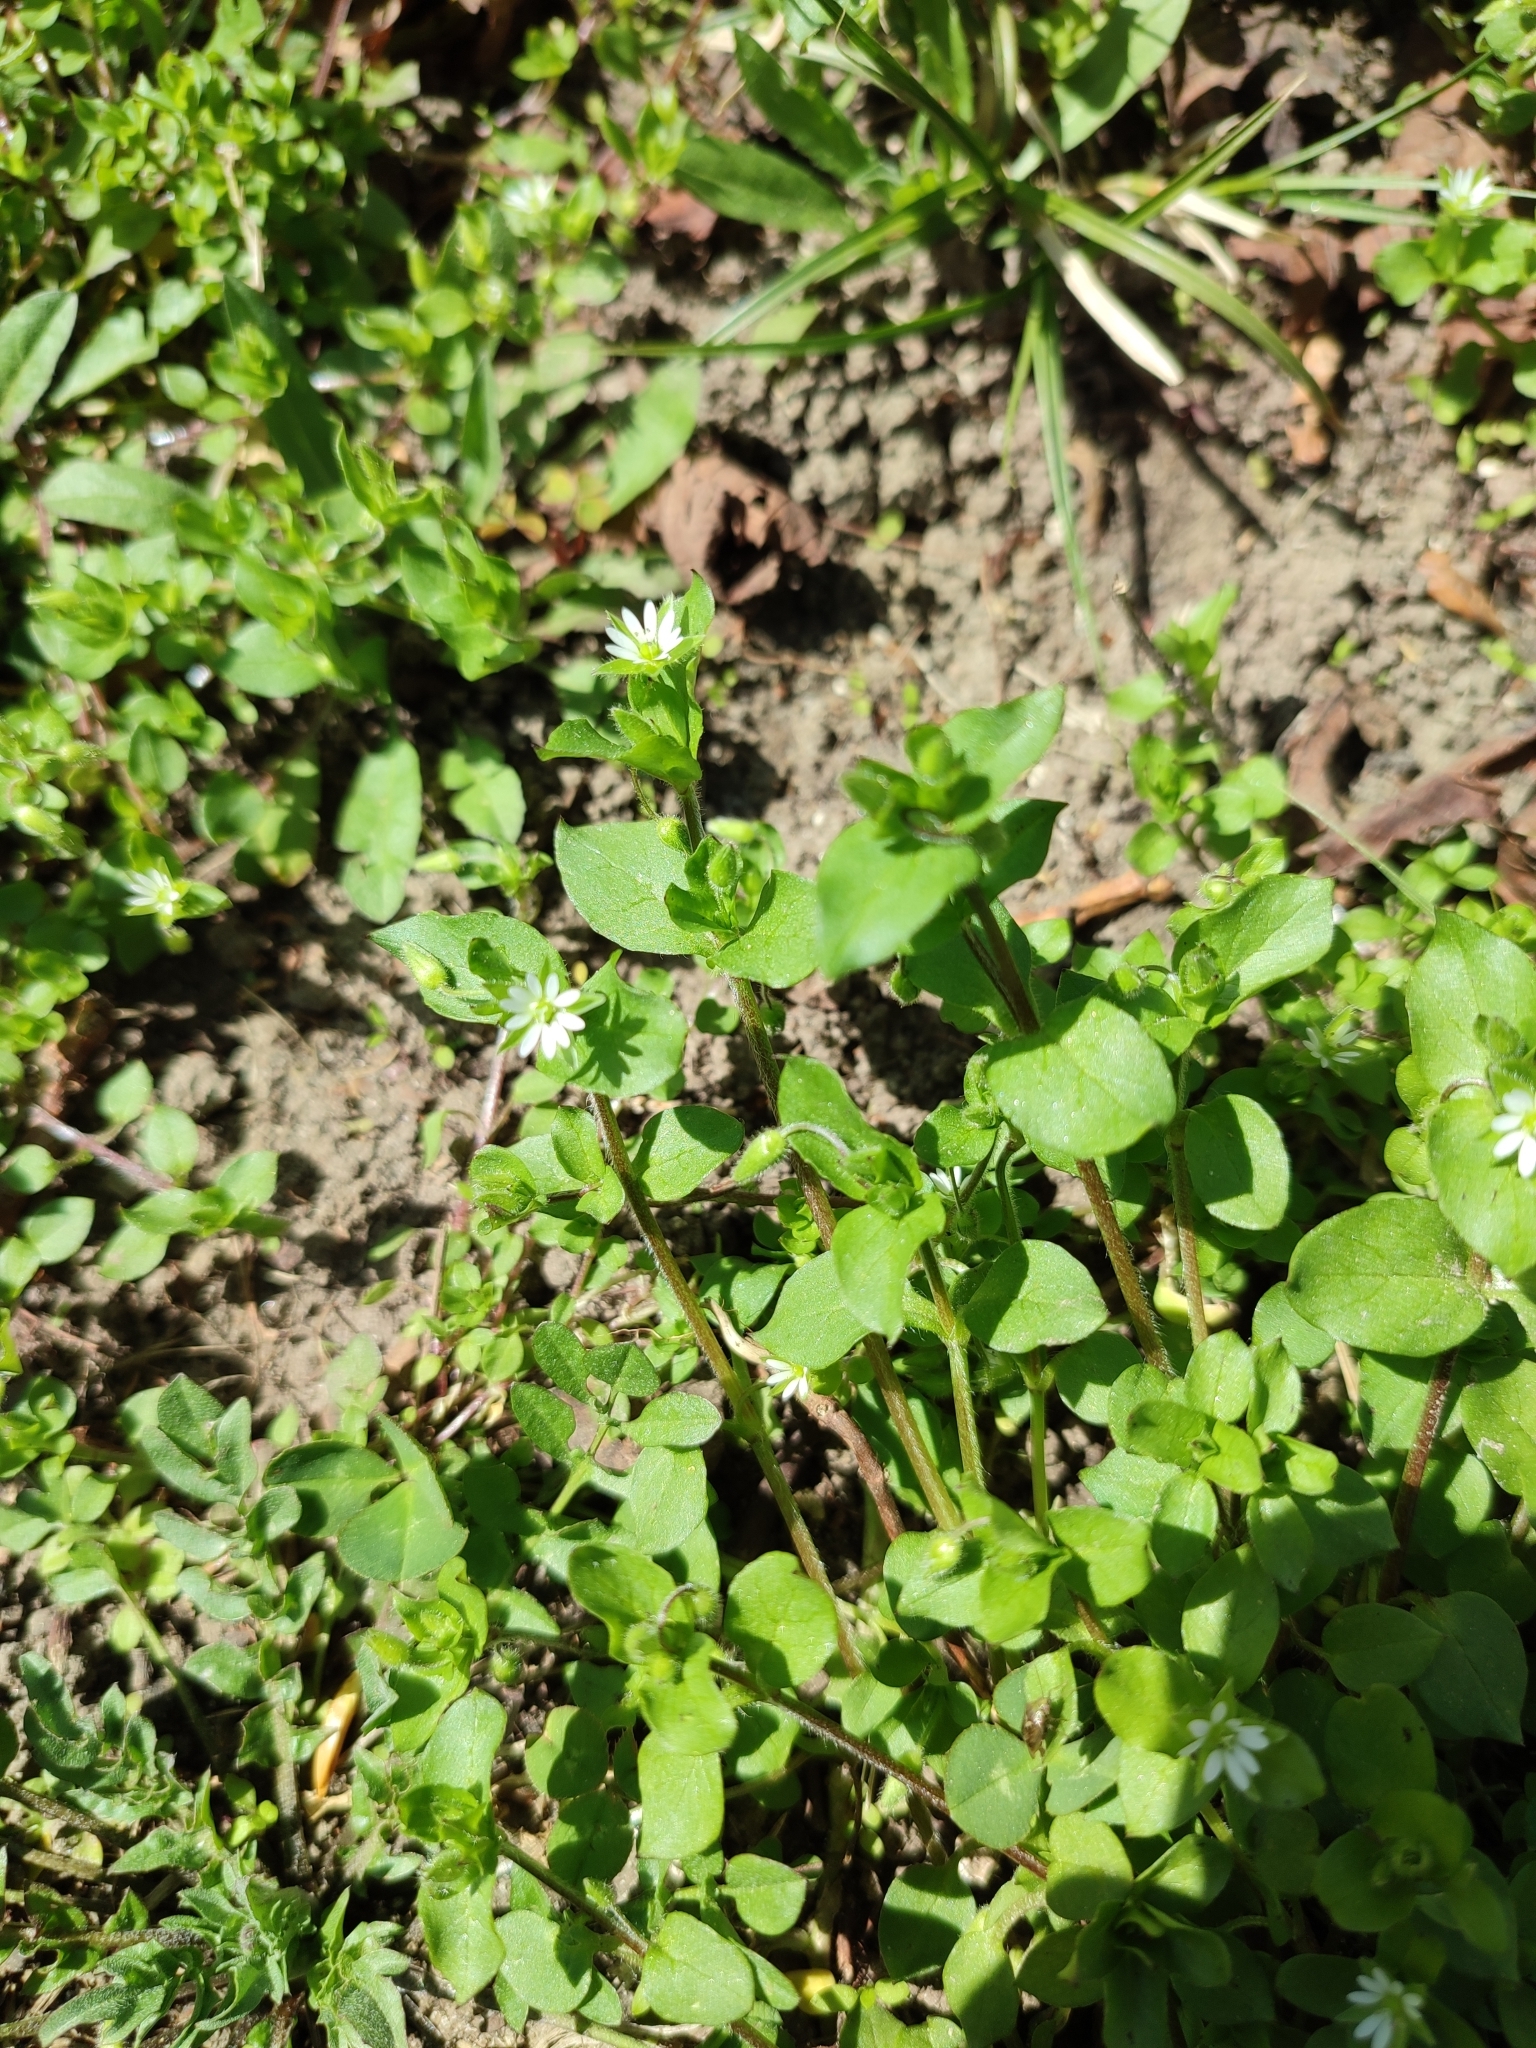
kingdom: Plantae
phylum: Tracheophyta
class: Magnoliopsida
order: Caryophyllales
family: Caryophyllaceae
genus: Stellaria
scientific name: Stellaria media
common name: Common chickweed
